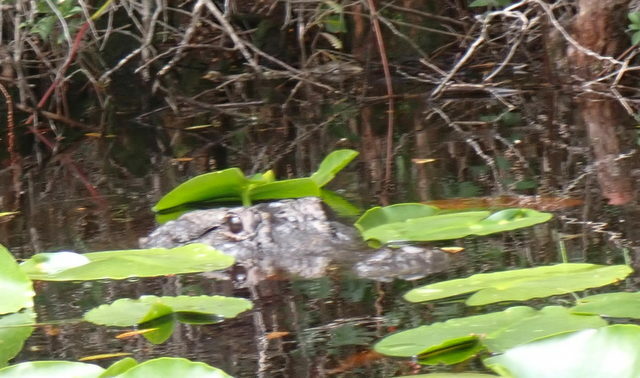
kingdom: Animalia
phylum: Chordata
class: Crocodylia
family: Alligatoridae
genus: Alligator
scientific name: Alligator mississippiensis
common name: American alligator
